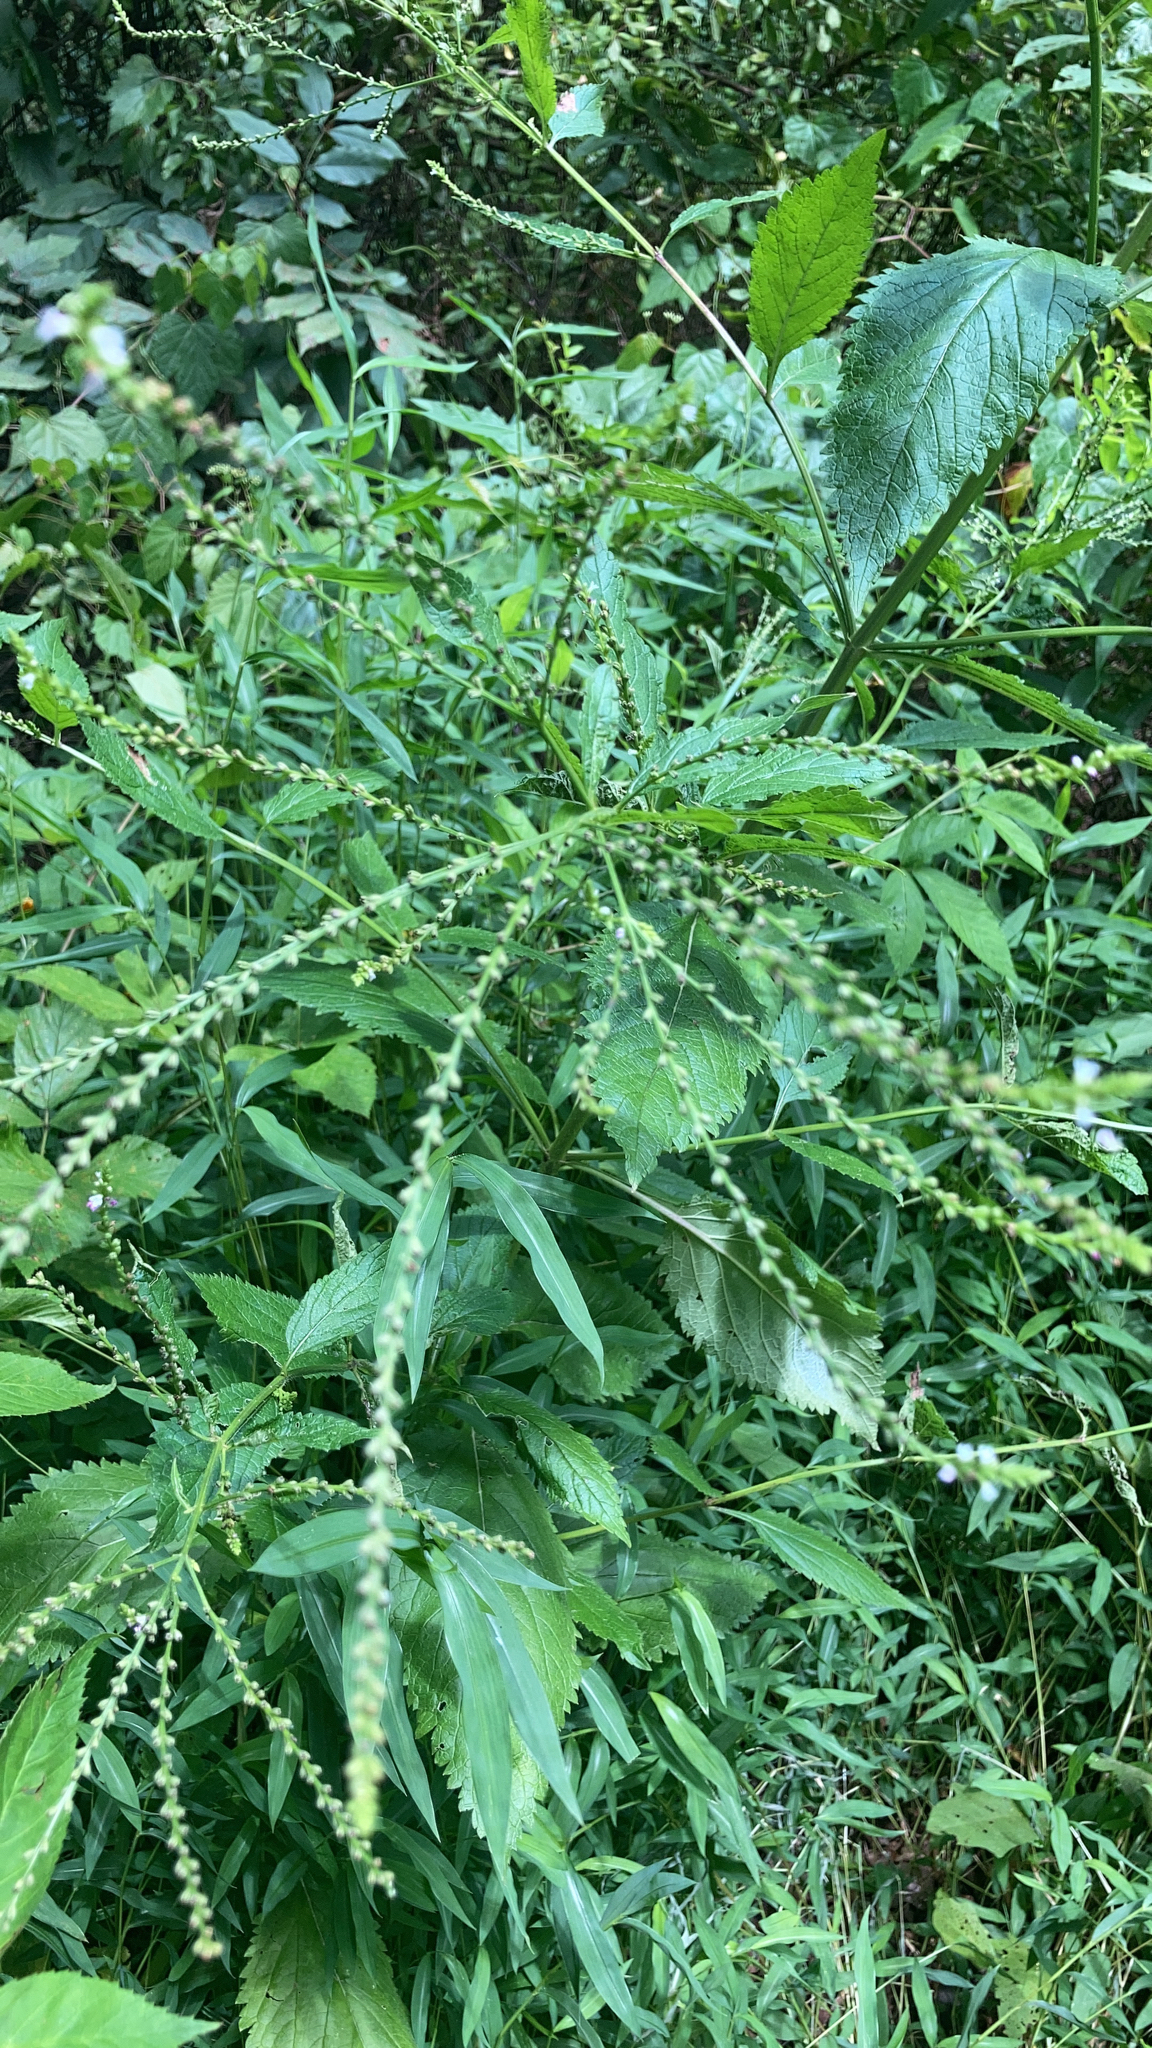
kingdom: Plantae
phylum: Tracheophyta
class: Magnoliopsida
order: Lamiales
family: Verbenaceae
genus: Verbena
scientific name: Verbena urticifolia
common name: Nettle-leaved vervain
